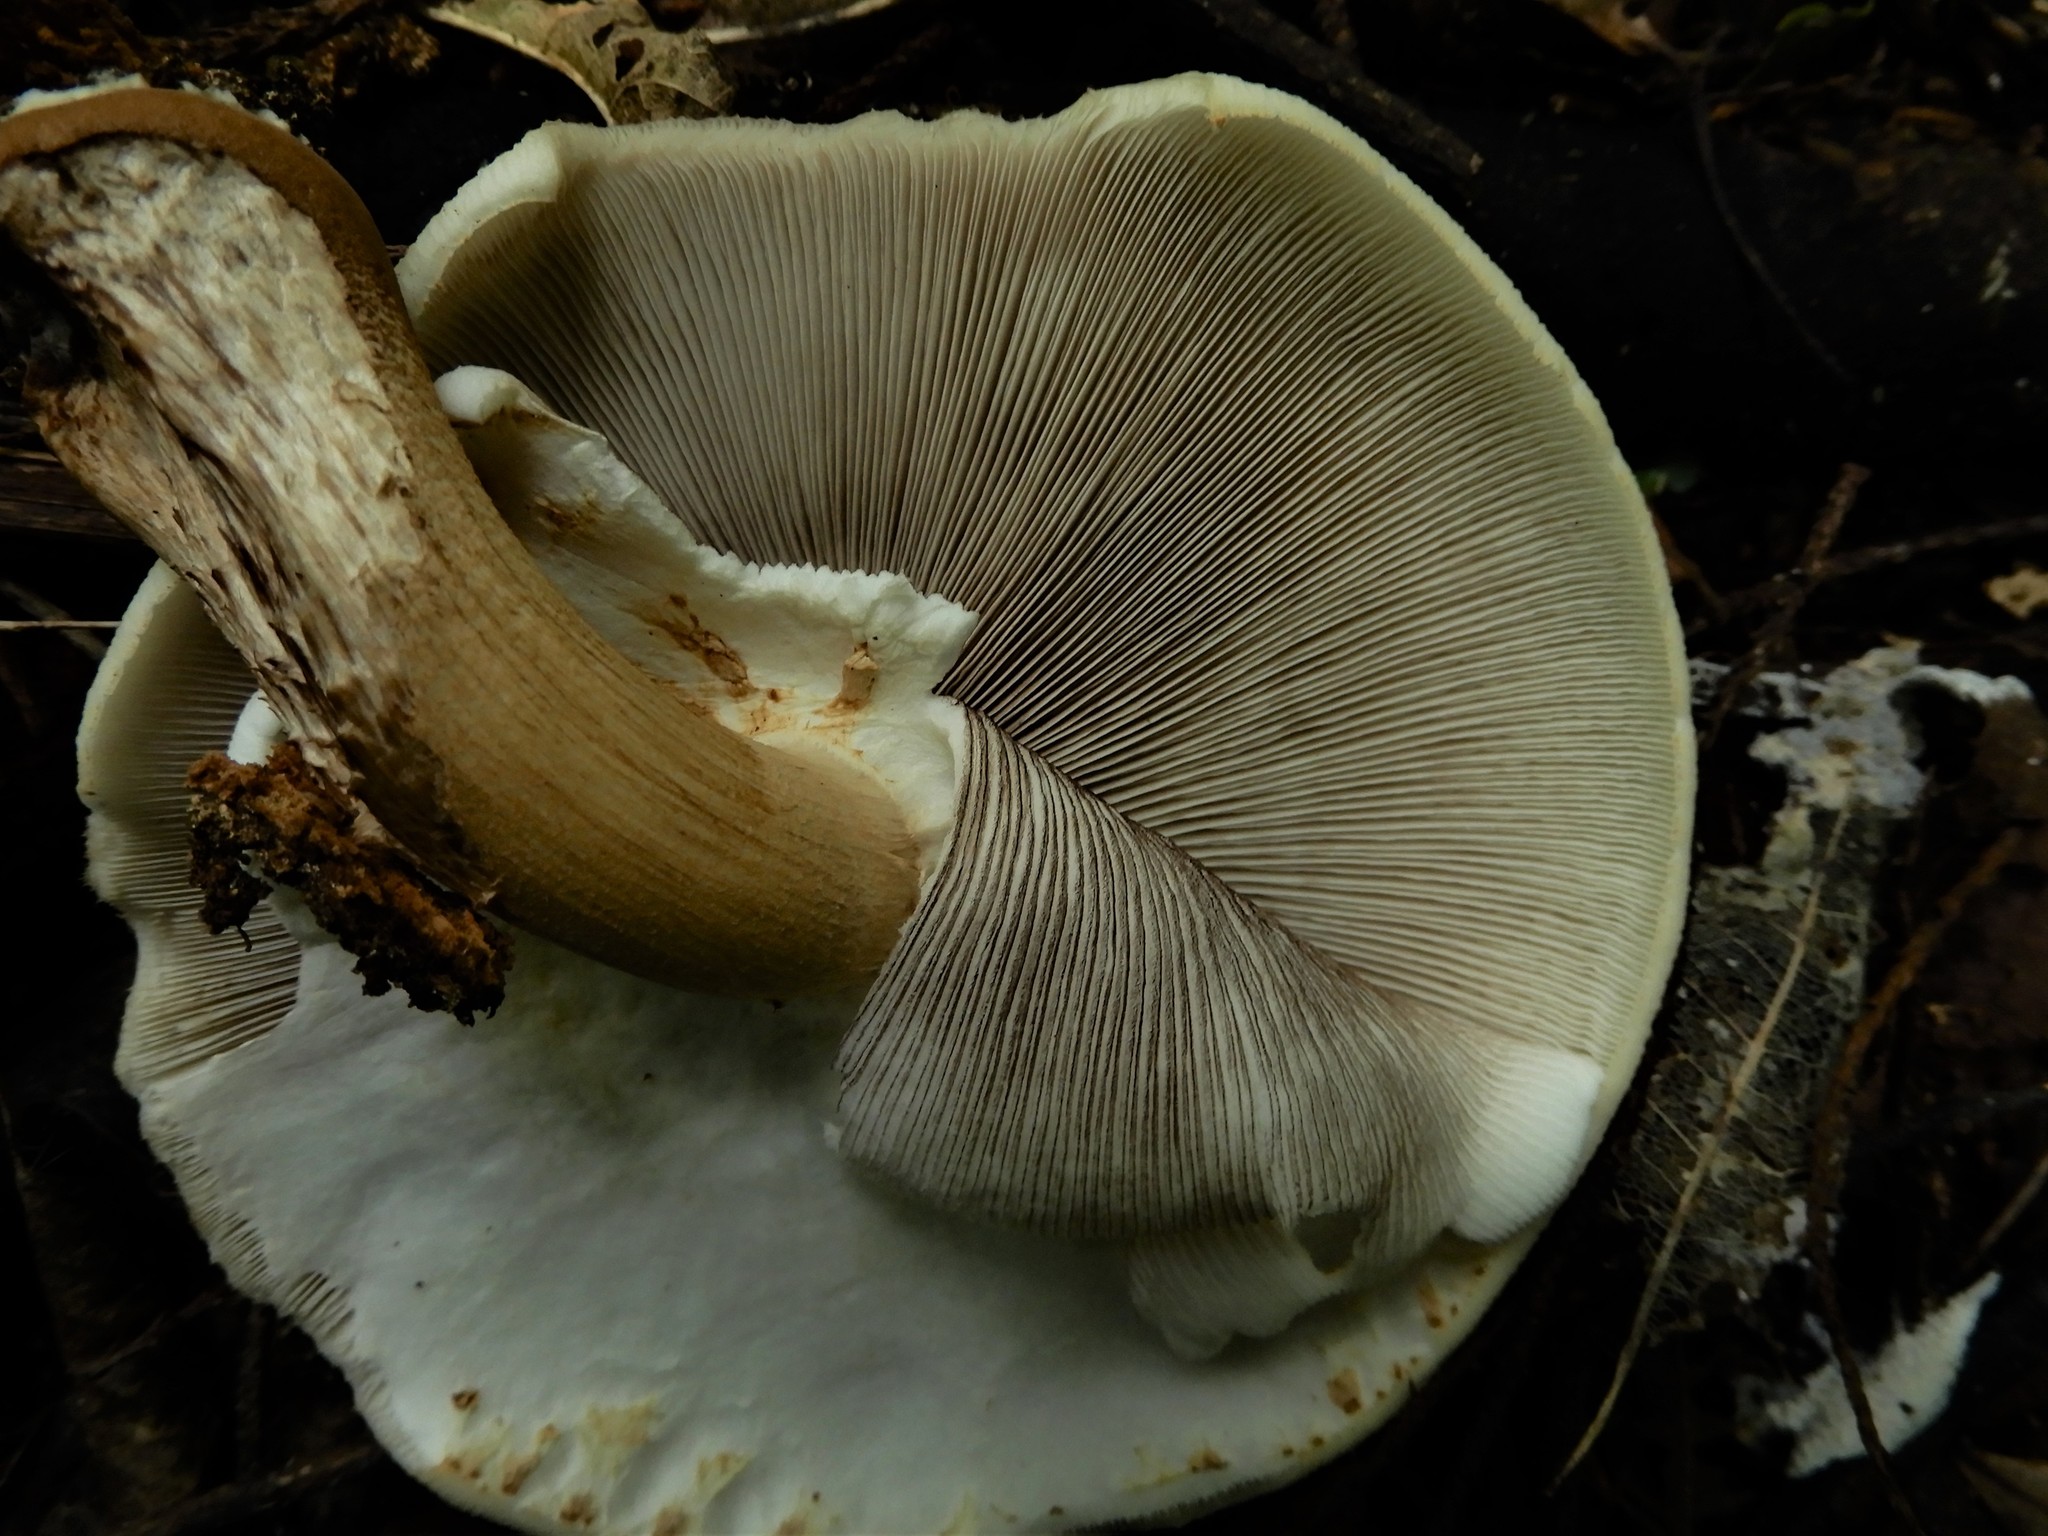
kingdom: Fungi
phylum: Basidiomycota
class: Agaricomycetes
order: Agaricales
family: Tubariaceae
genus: Cyclocybe
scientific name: Cyclocybe parasitica
